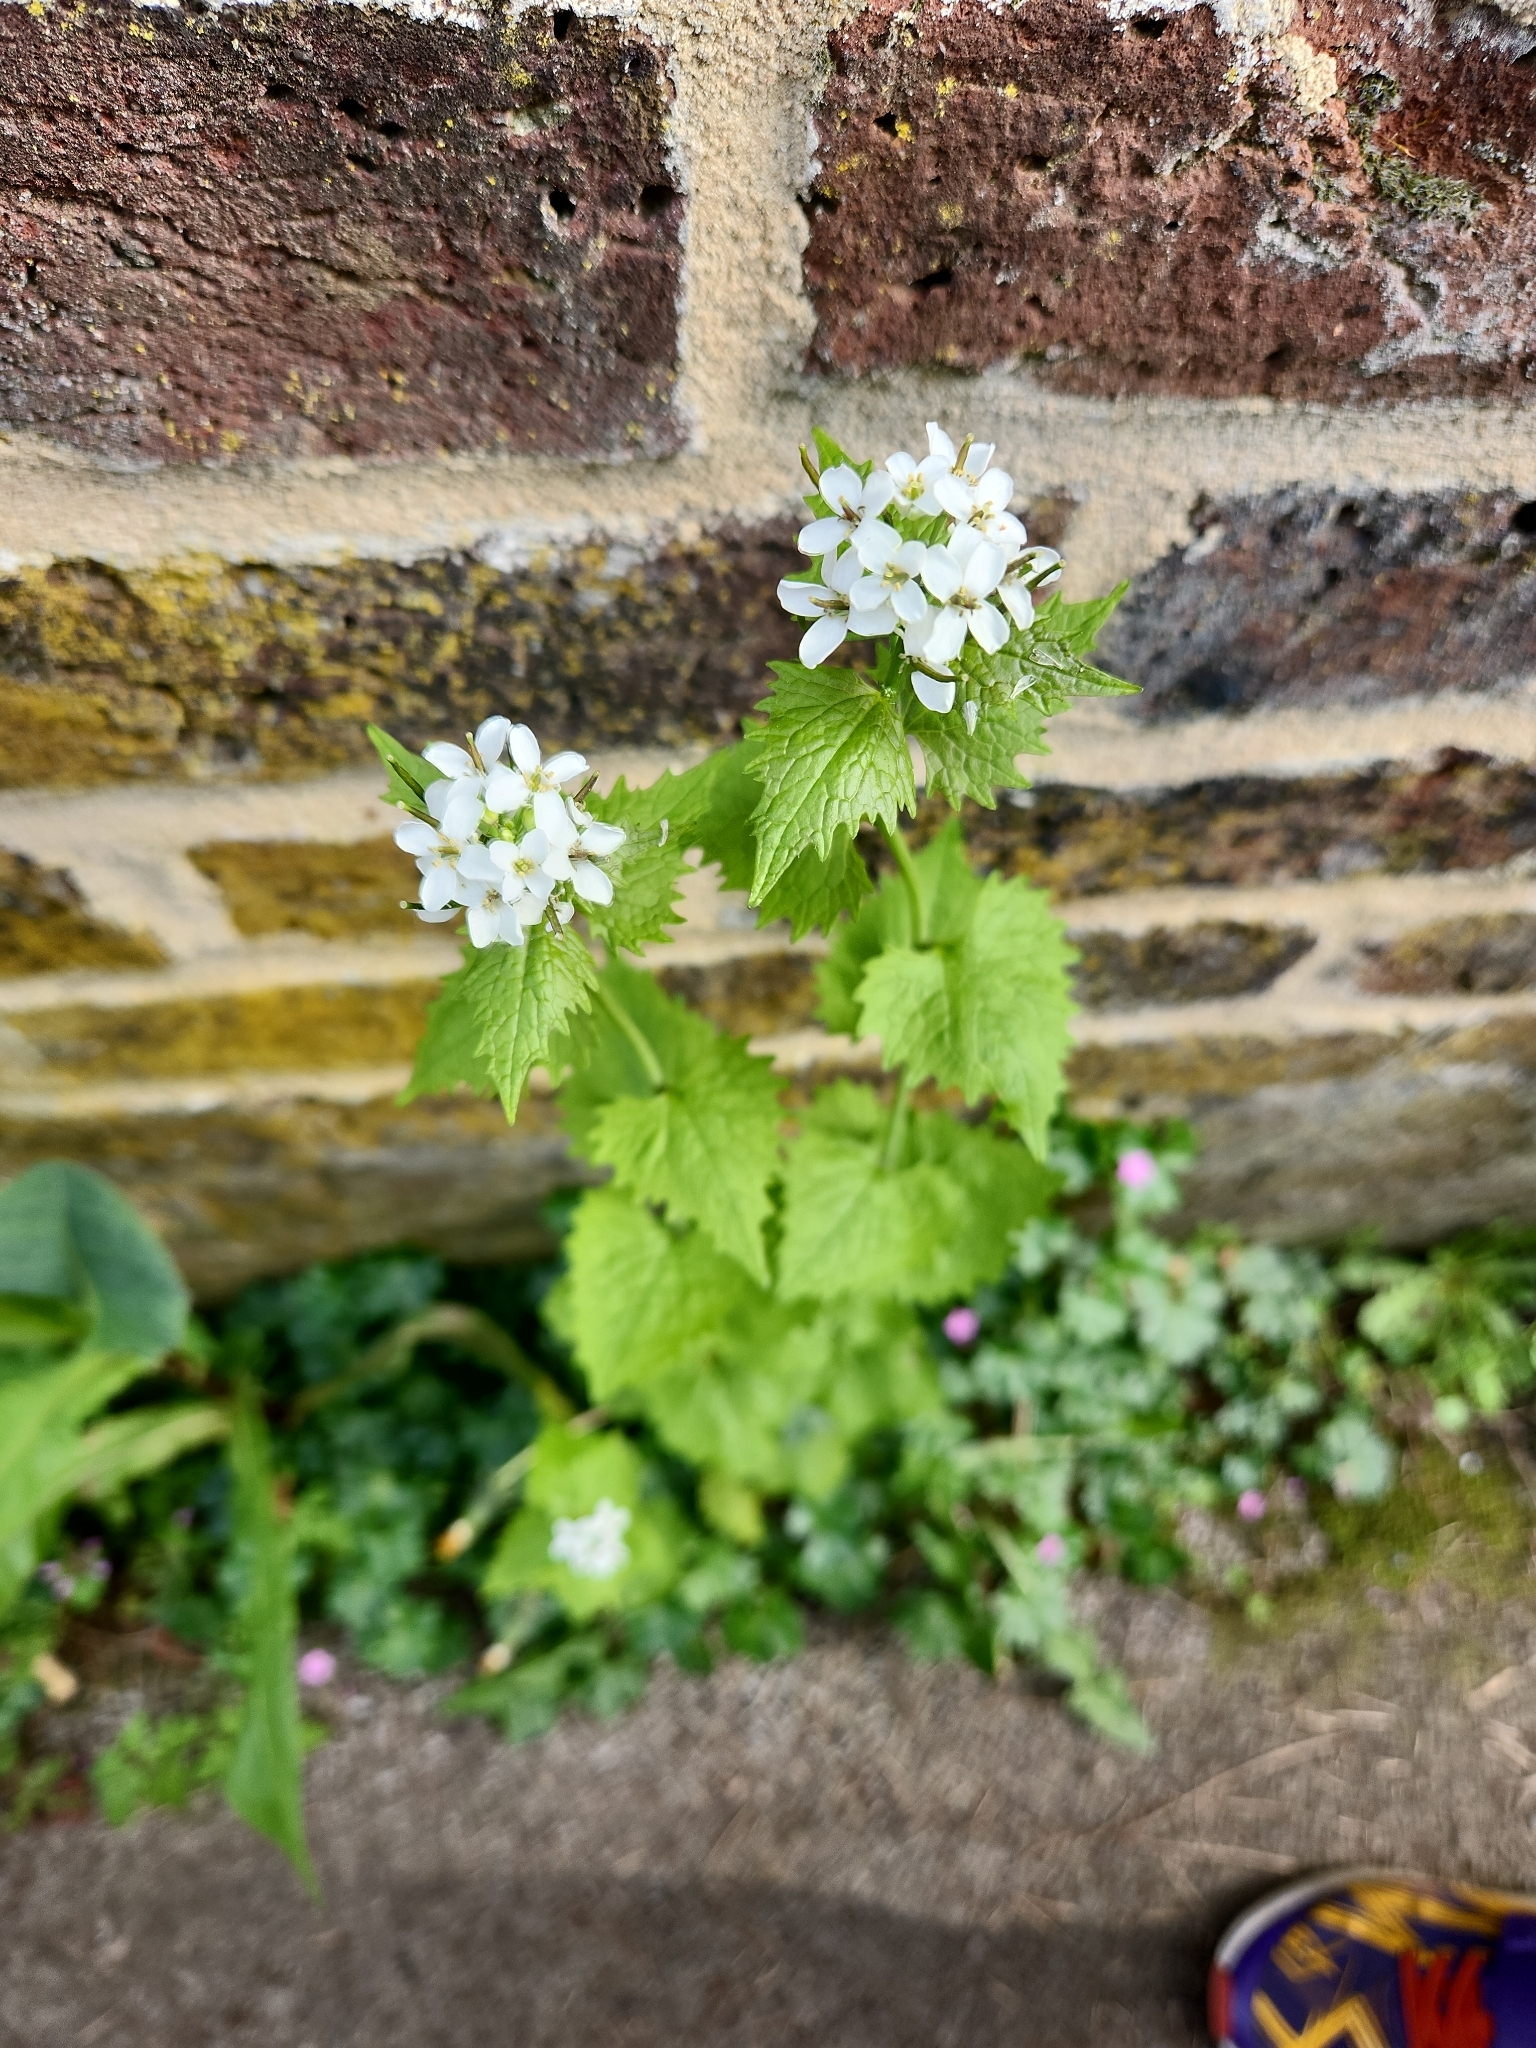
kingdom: Plantae
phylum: Tracheophyta
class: Magnoliopsida
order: Brassicales
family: Brassicaceae
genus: Alliaria
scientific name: Alliaria petiolata
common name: Garlic mustard
